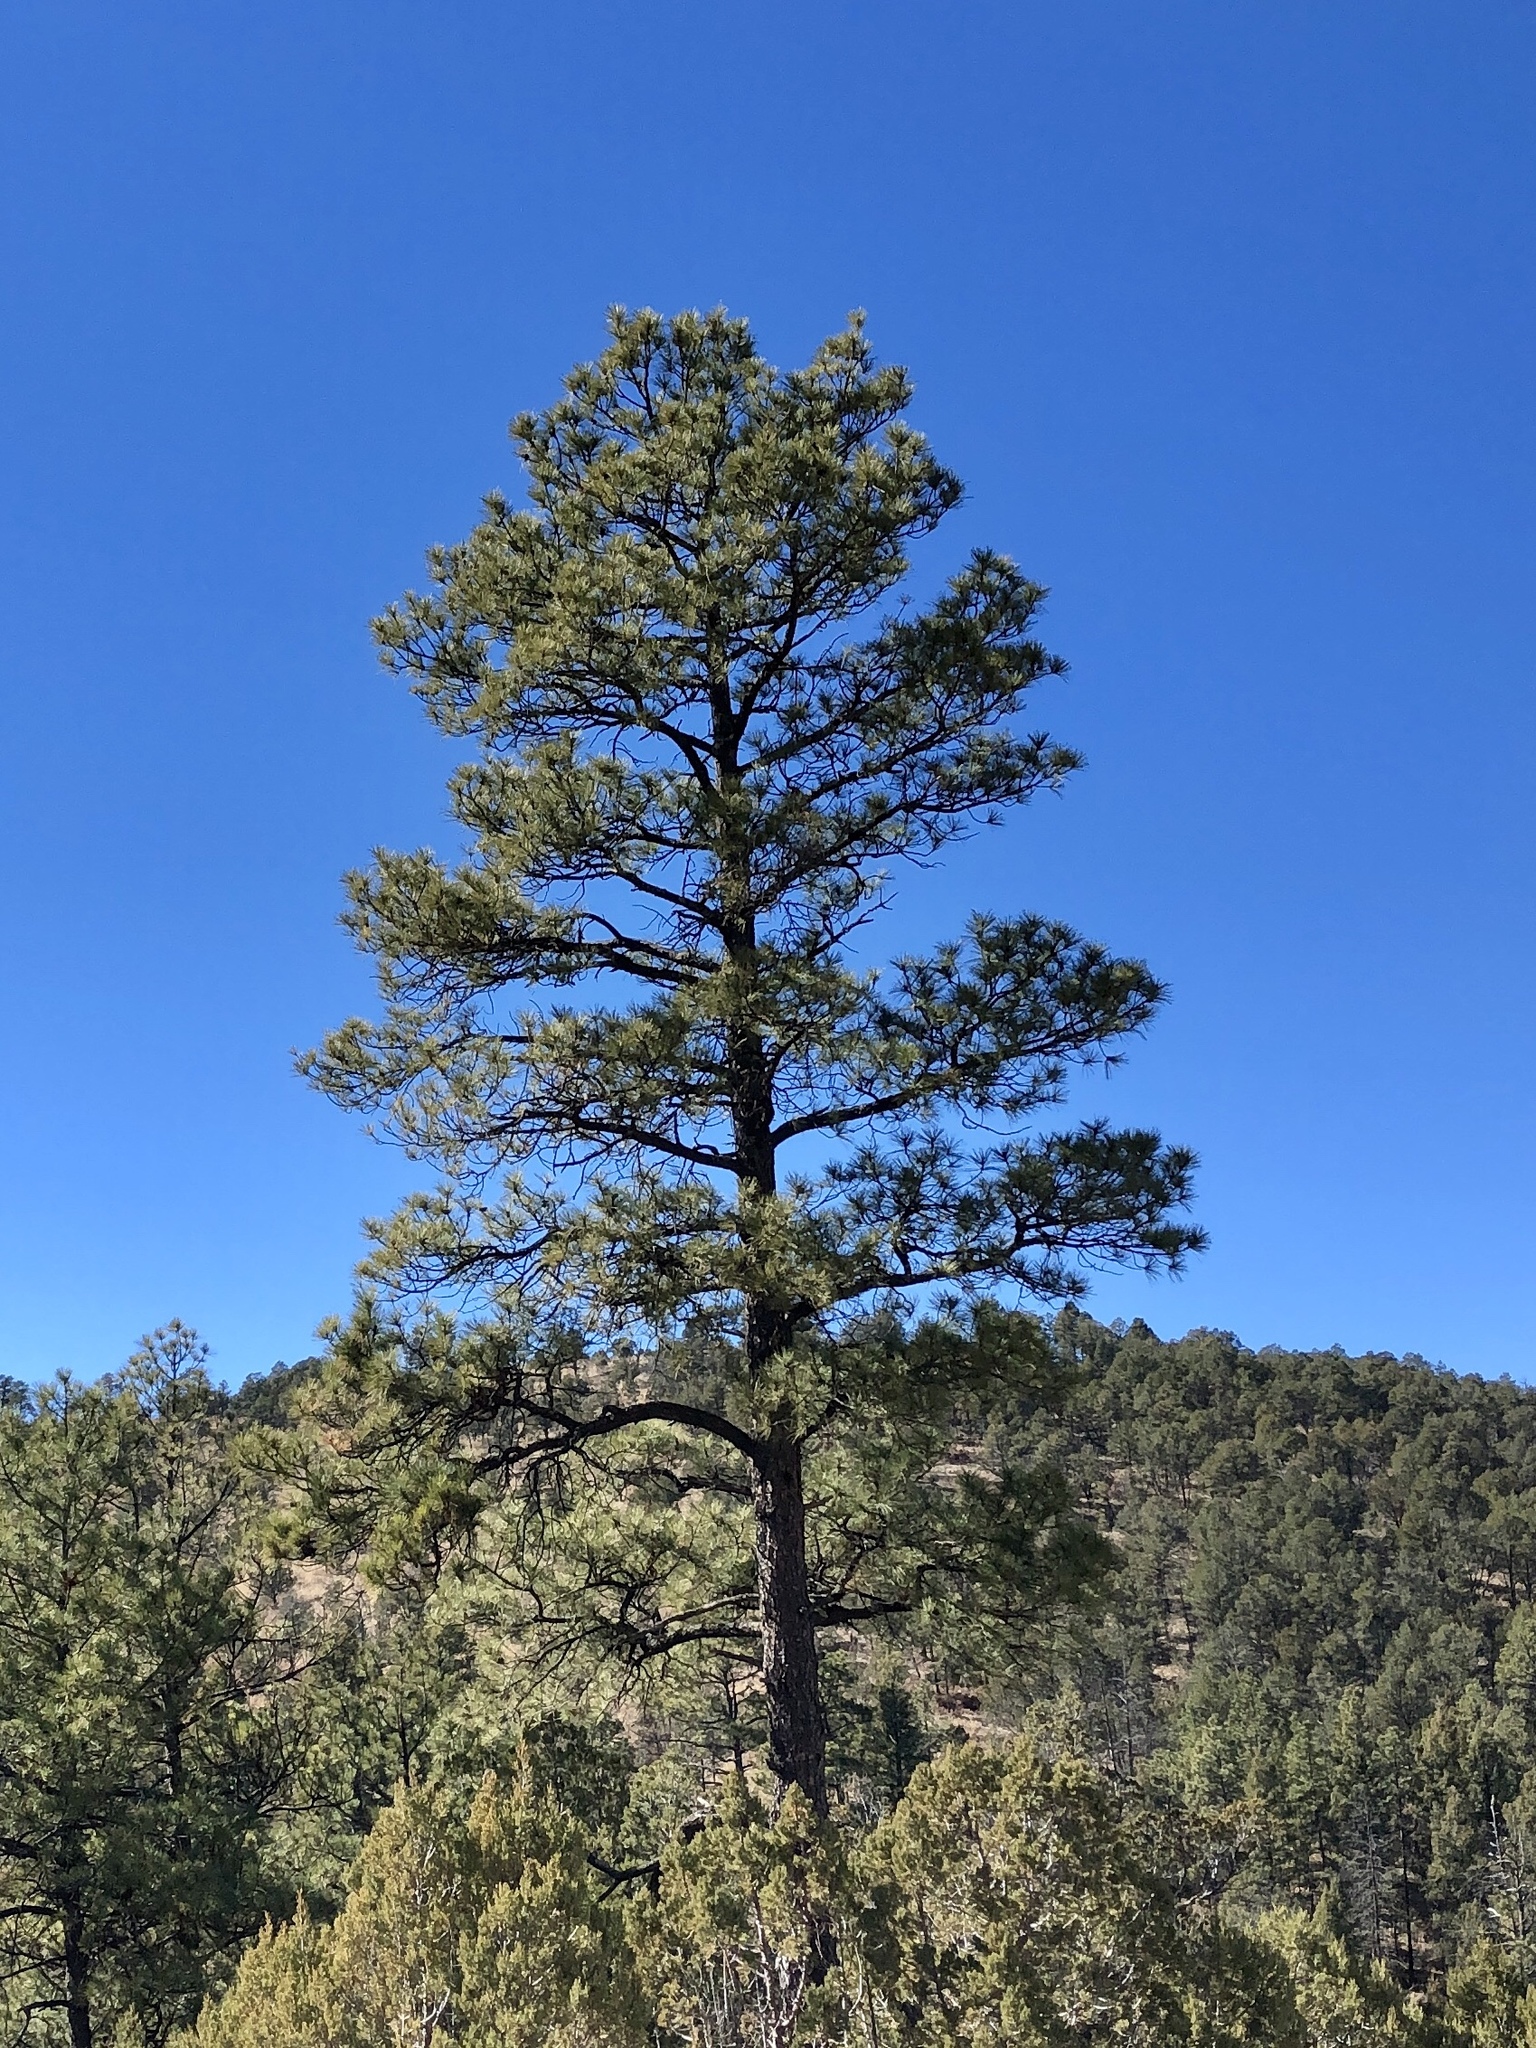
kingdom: Plantae
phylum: Tracheophyta
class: Pinopsida
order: Pinales
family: Pinaceae
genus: Pinus
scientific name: Pinus ponderosa
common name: Western yellow-pine
